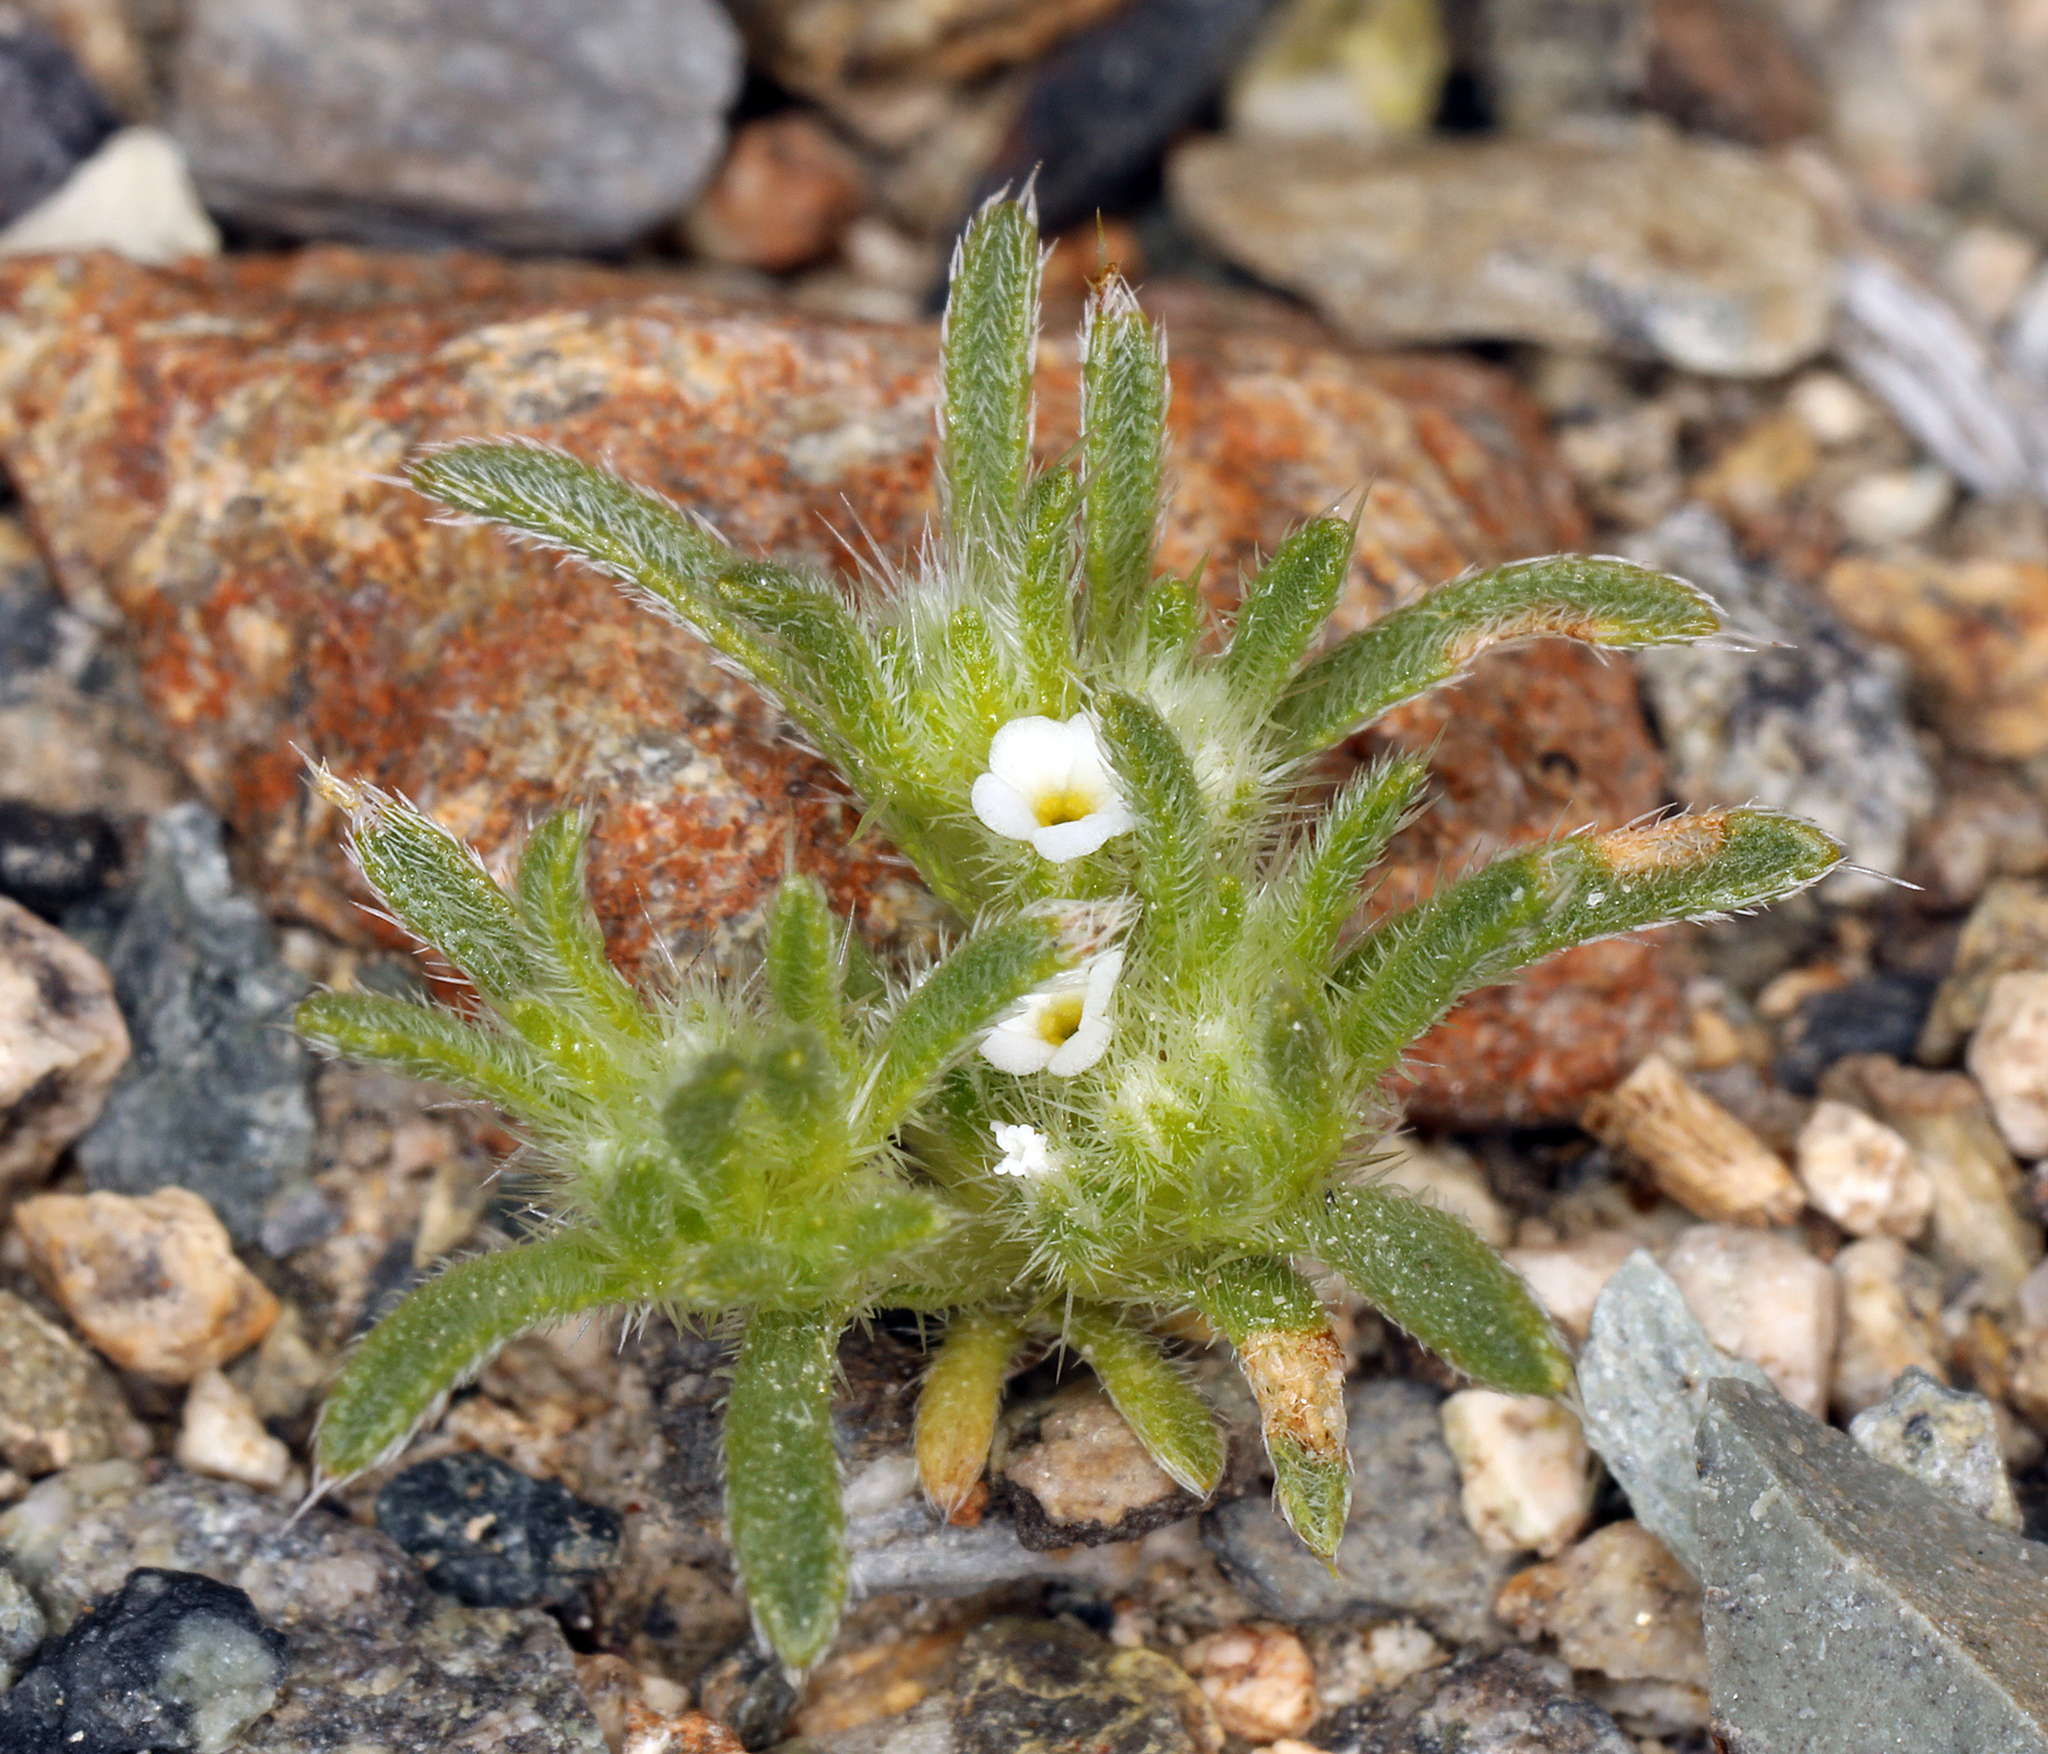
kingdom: Plantae
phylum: Tracheophyta
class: Magnoliopsida
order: Boraginales
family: Boraginaceae
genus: Greeneocharis
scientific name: Greeneocharis circumscissa
